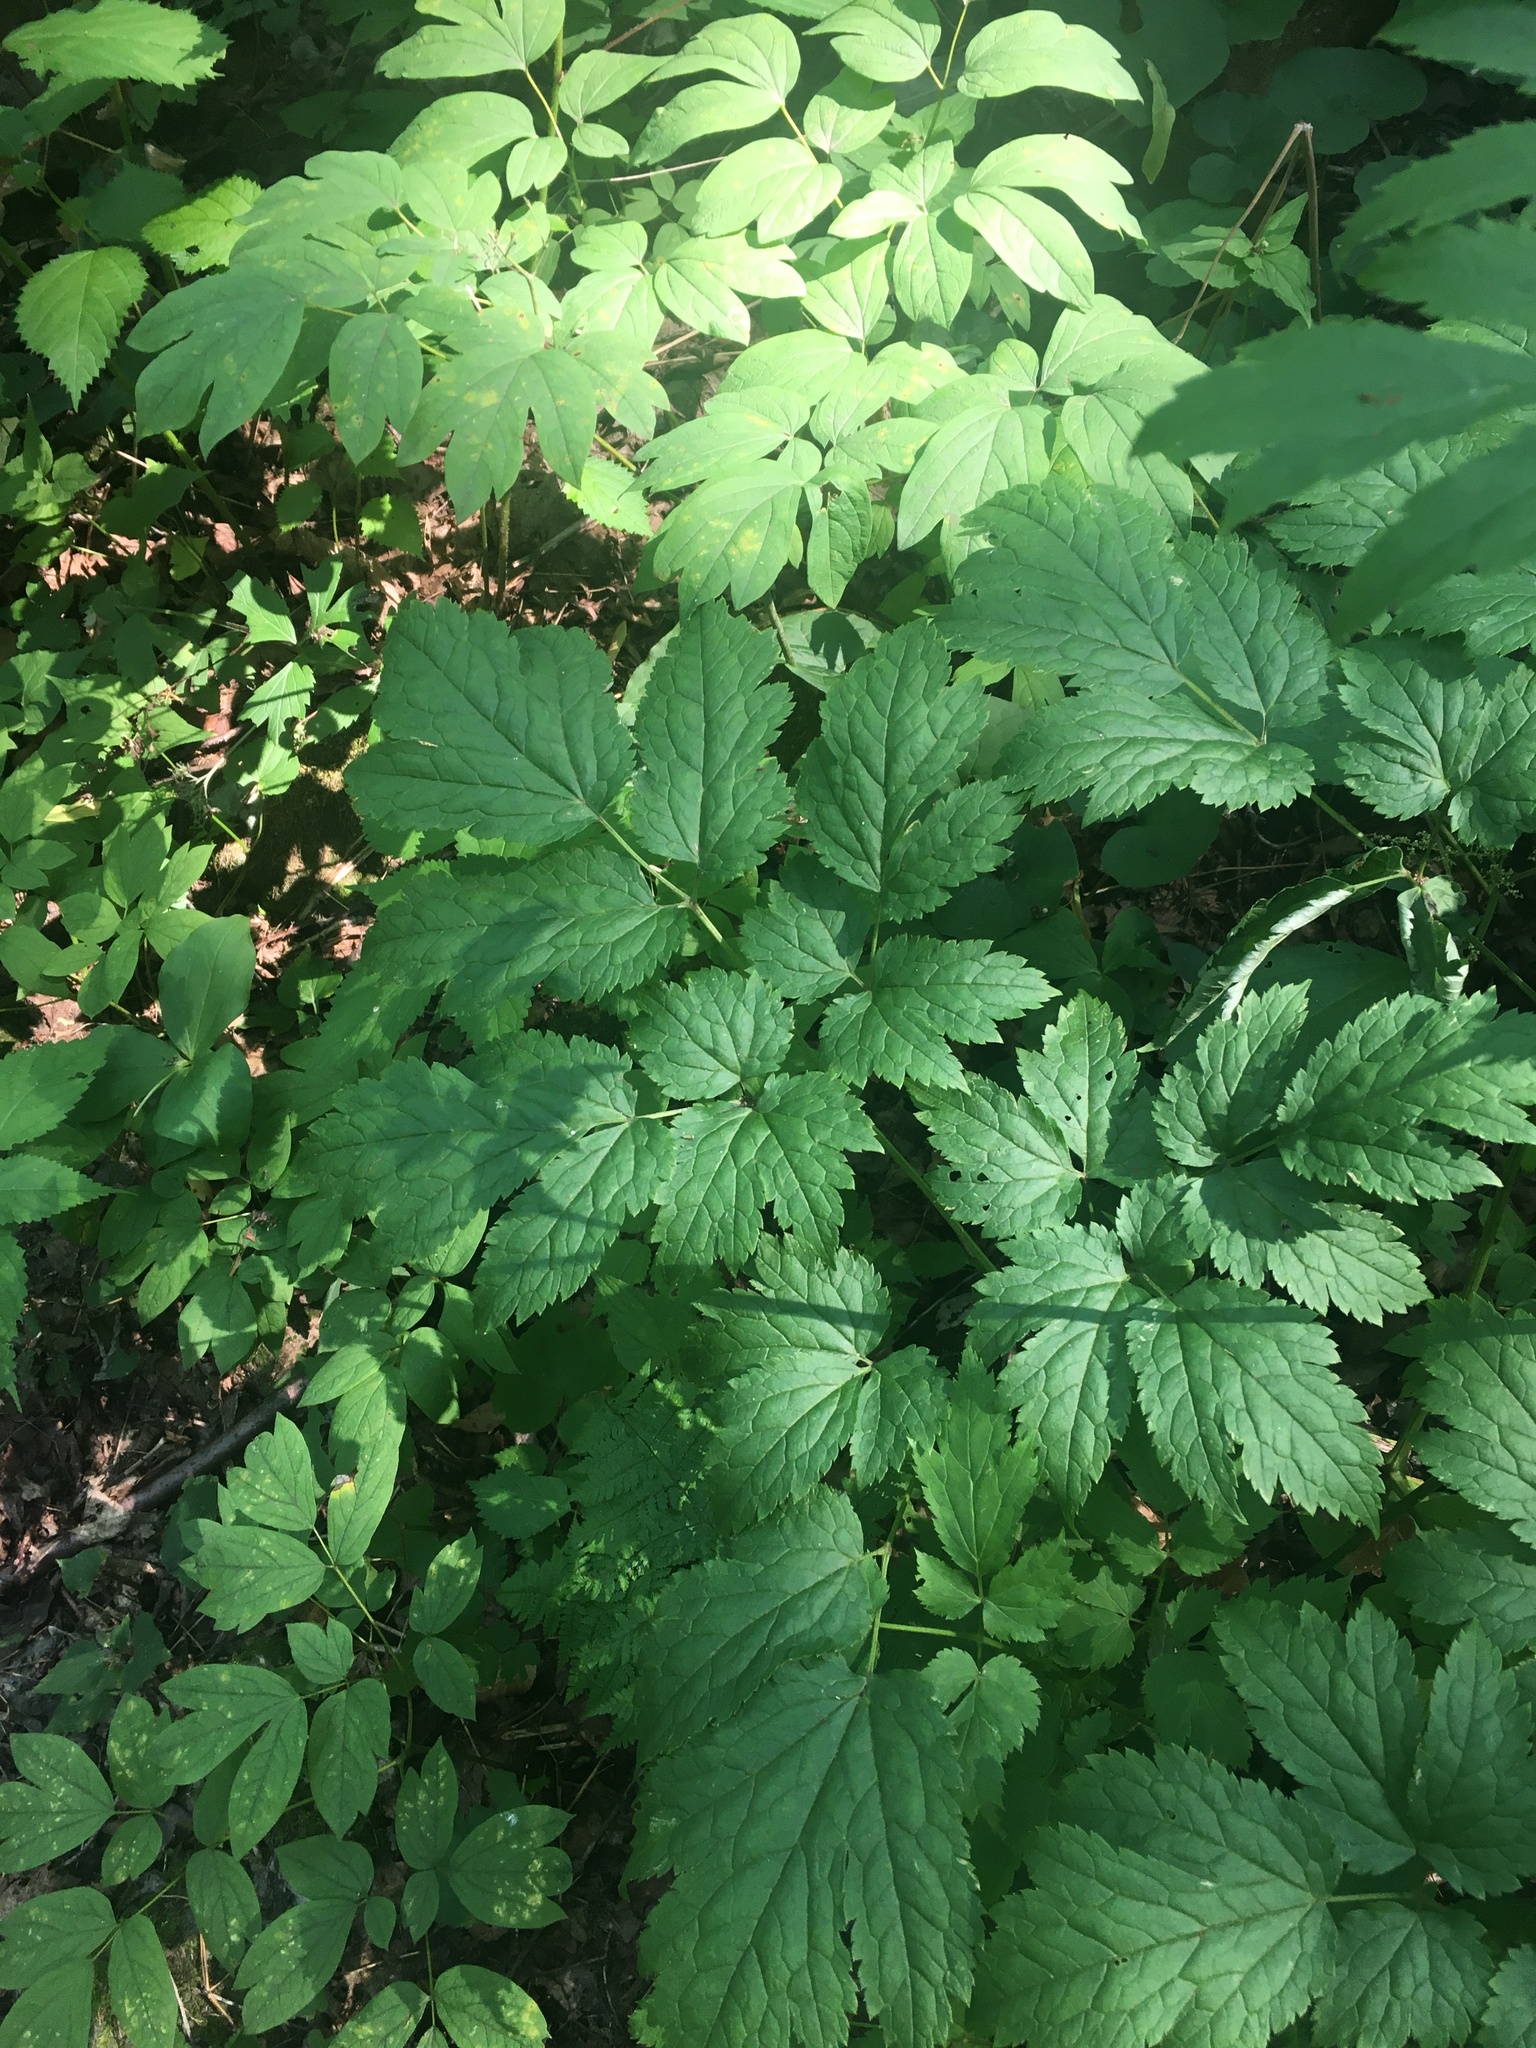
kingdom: Plantae
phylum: Tracheophyta
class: Magnoliopsida
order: Ranunculales
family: Ranunculaceae
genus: Actaea
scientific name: Actaea racemosa
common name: Black cohosh
